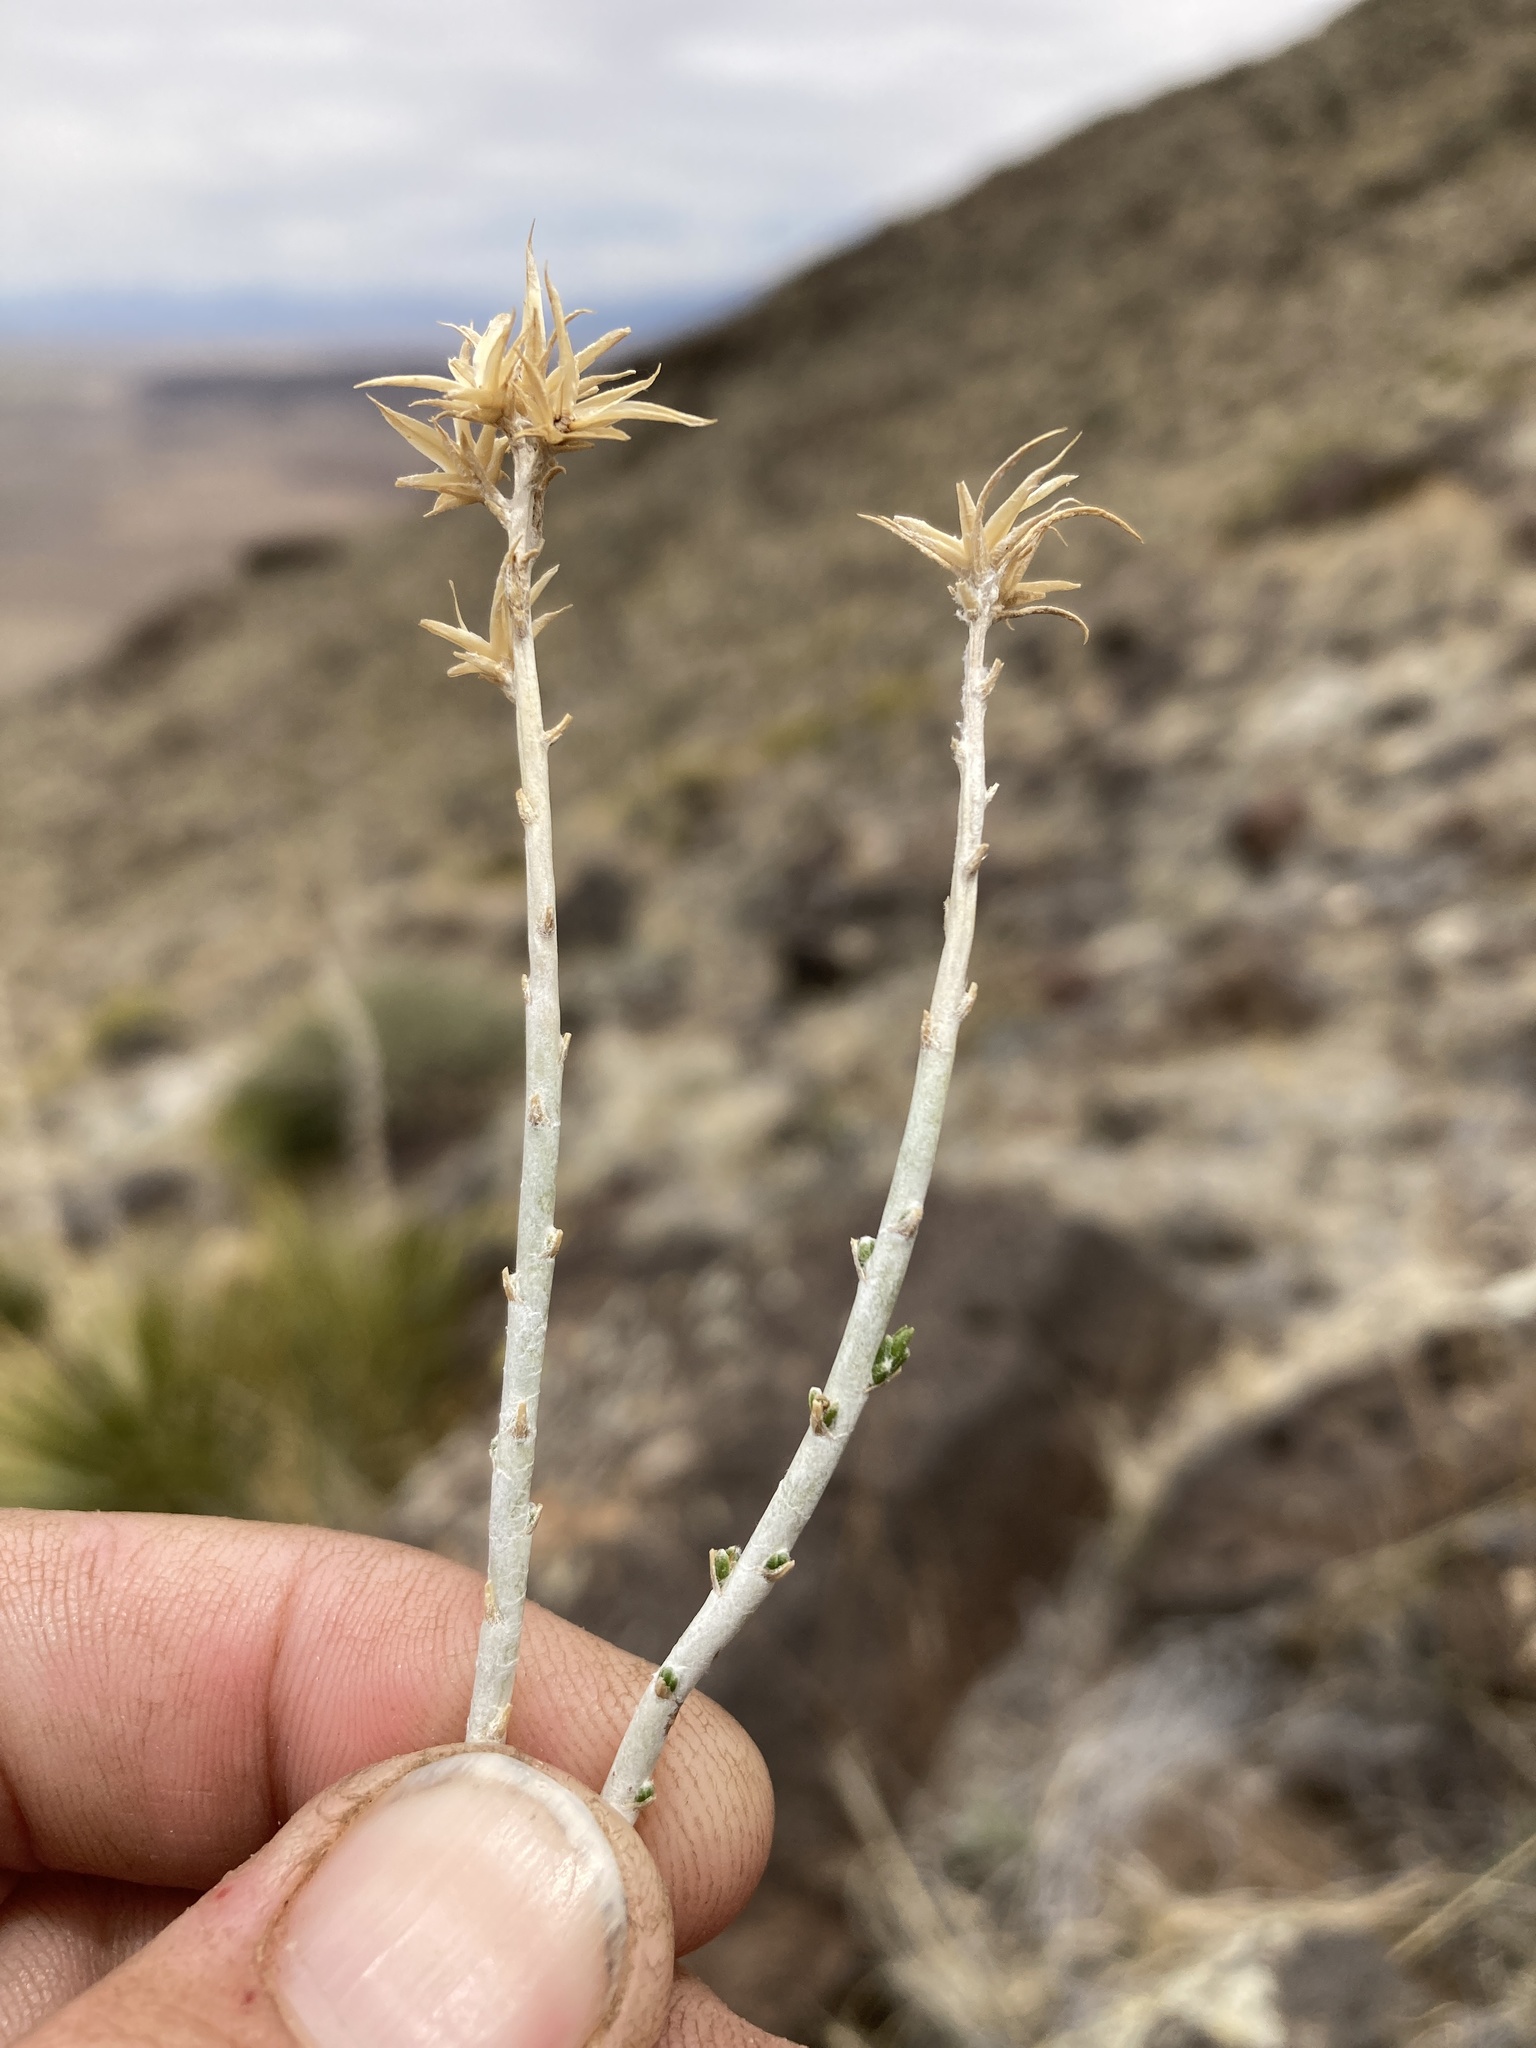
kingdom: Plantae
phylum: Tracheophyta
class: Magnoliopsida
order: Asterales
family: Asteraceae
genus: Ericameria
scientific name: Ericameria nauseosa
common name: Rubber rabbitbrush
